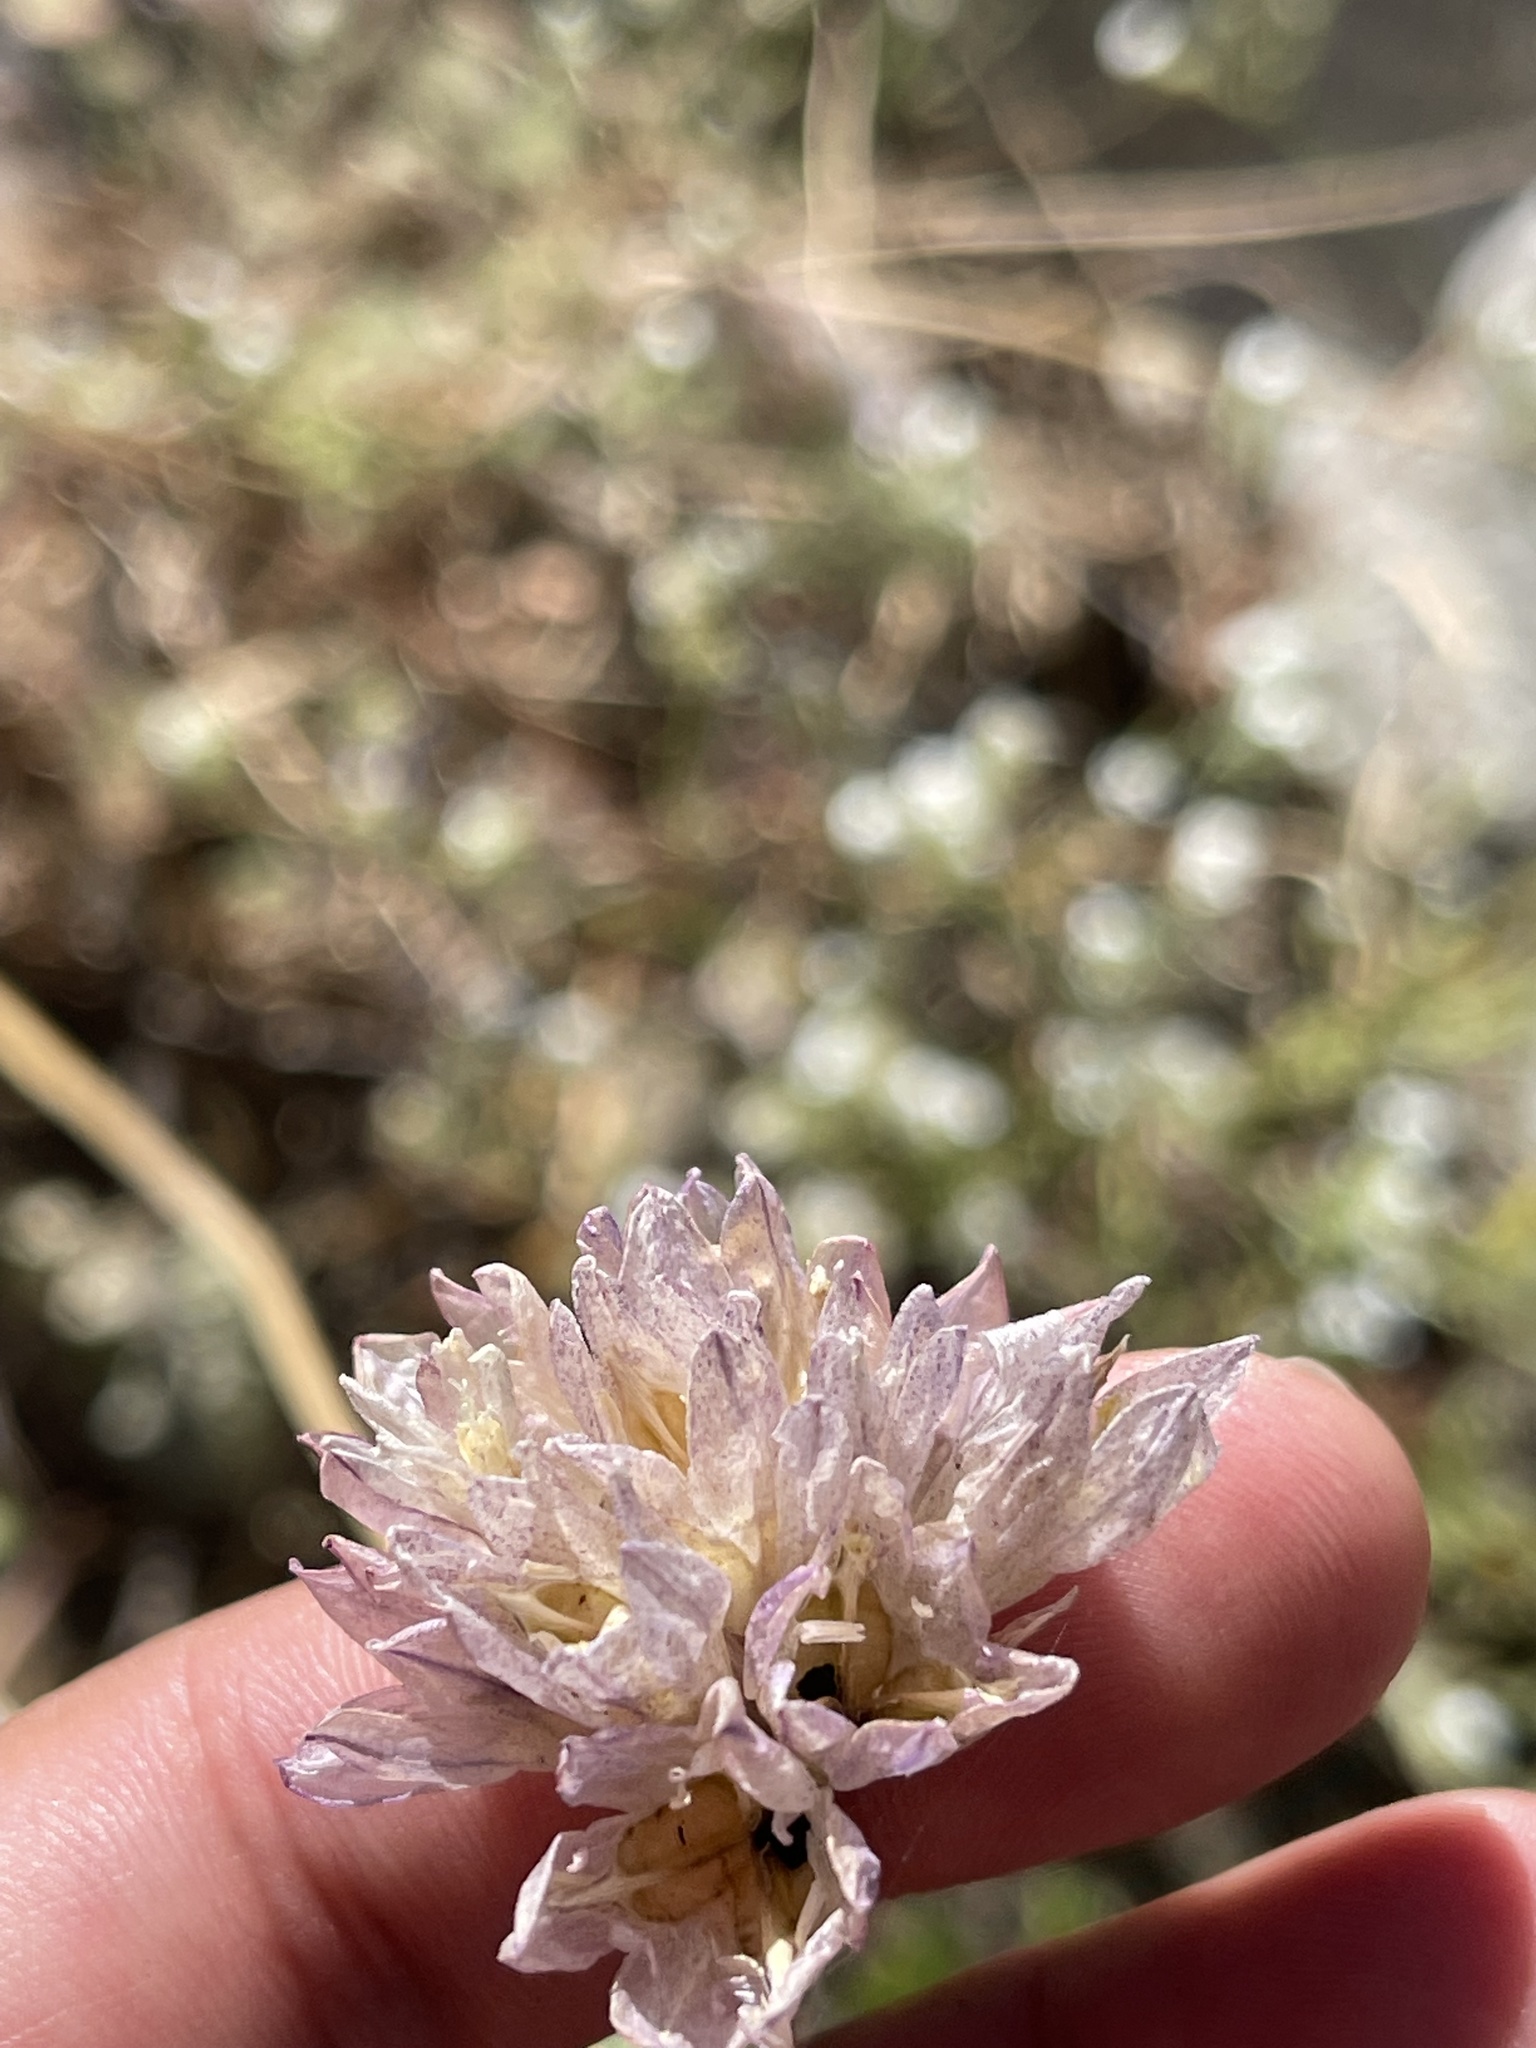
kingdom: Plantae
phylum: Tracheophyta
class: Liliopsida
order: Asparagales
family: Asparagaceae
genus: Dipterostemon
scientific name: Dipterostemon capitatus
